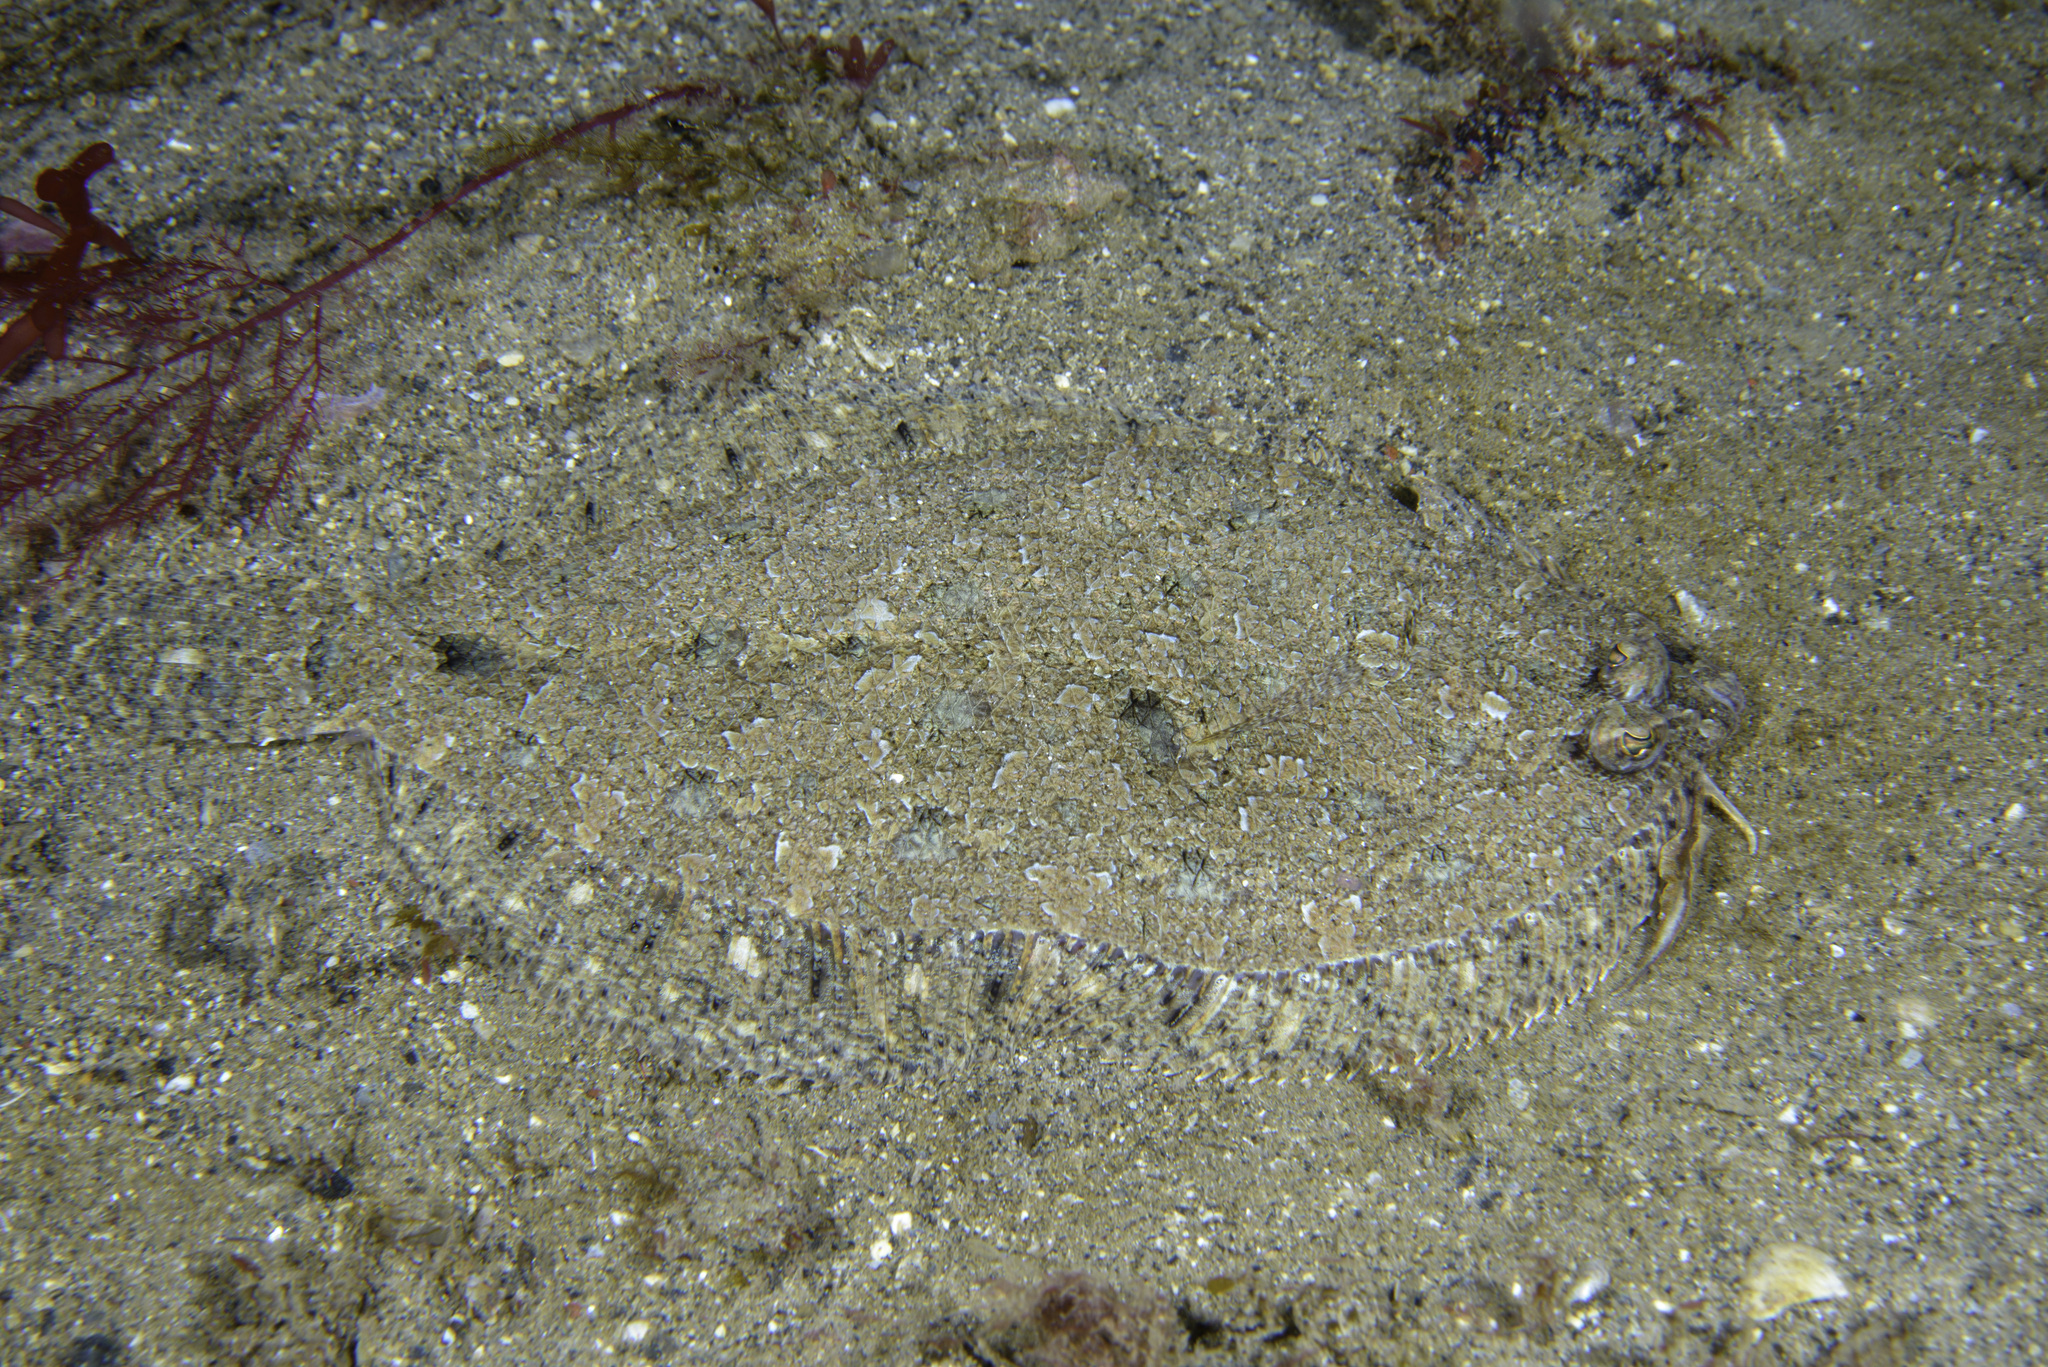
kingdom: Animalia
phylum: Chordata
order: Pleuronectiformes
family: Bothidae
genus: Arnoglossus
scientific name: Arnoglossus thori
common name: Thor's scaldfish
